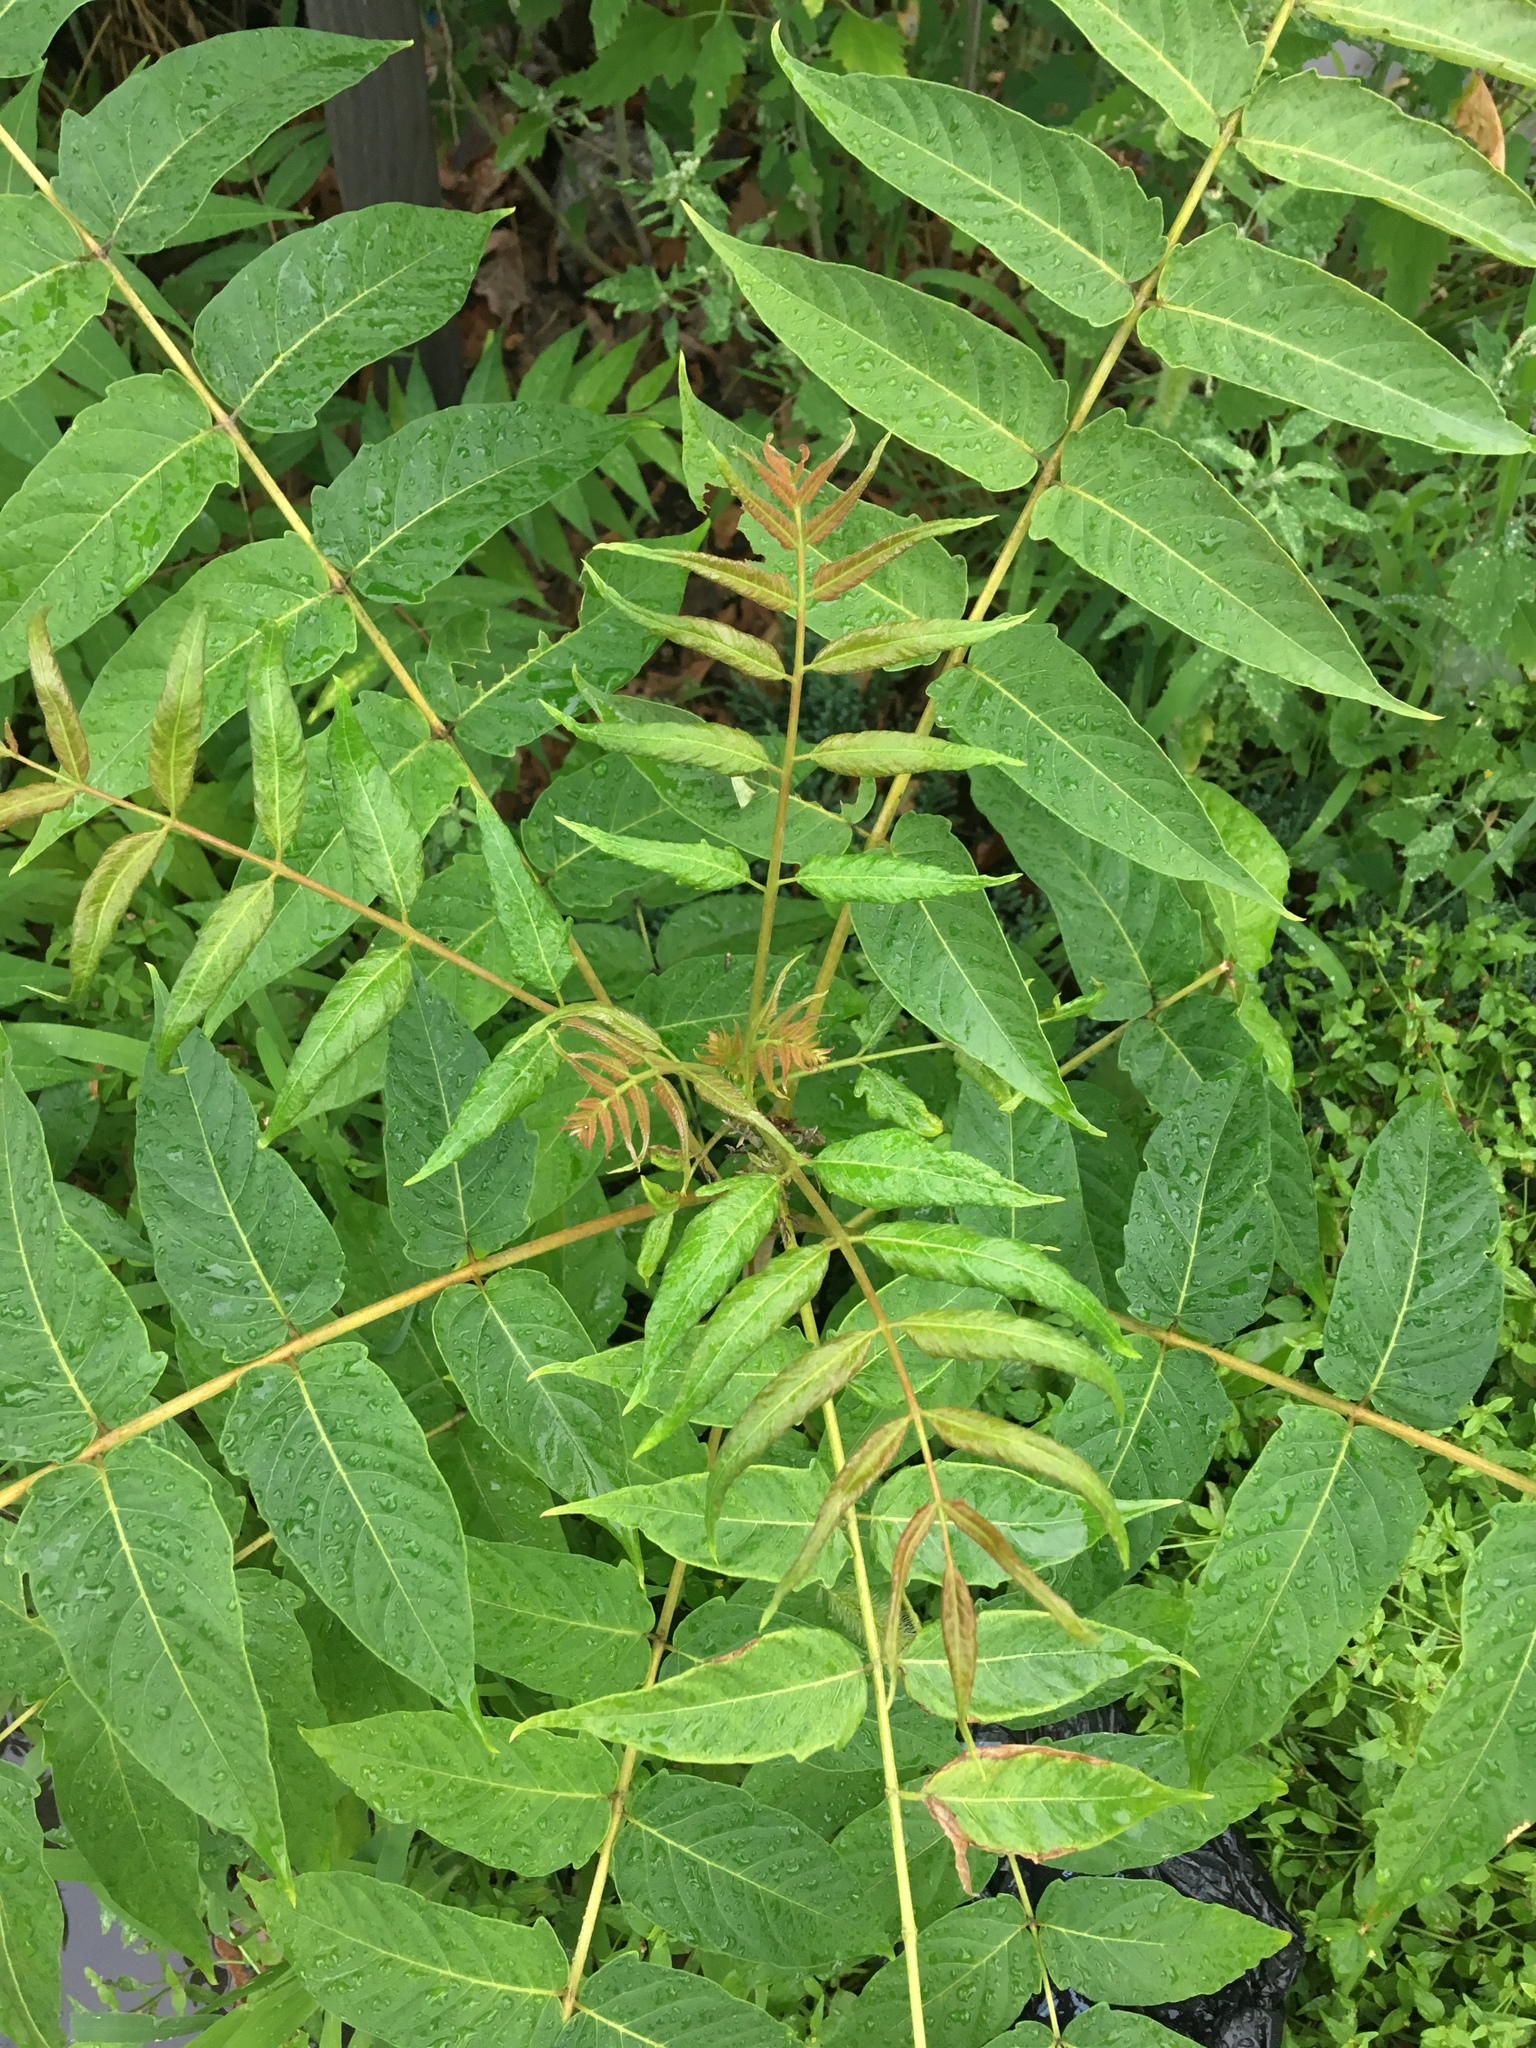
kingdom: Plantae
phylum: Tracheophyta
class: Magnoliopsida
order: Sapindales
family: Simaroubaceae
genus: Ailanthus
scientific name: Ailanthus altissima
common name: Tree-of-heaven
